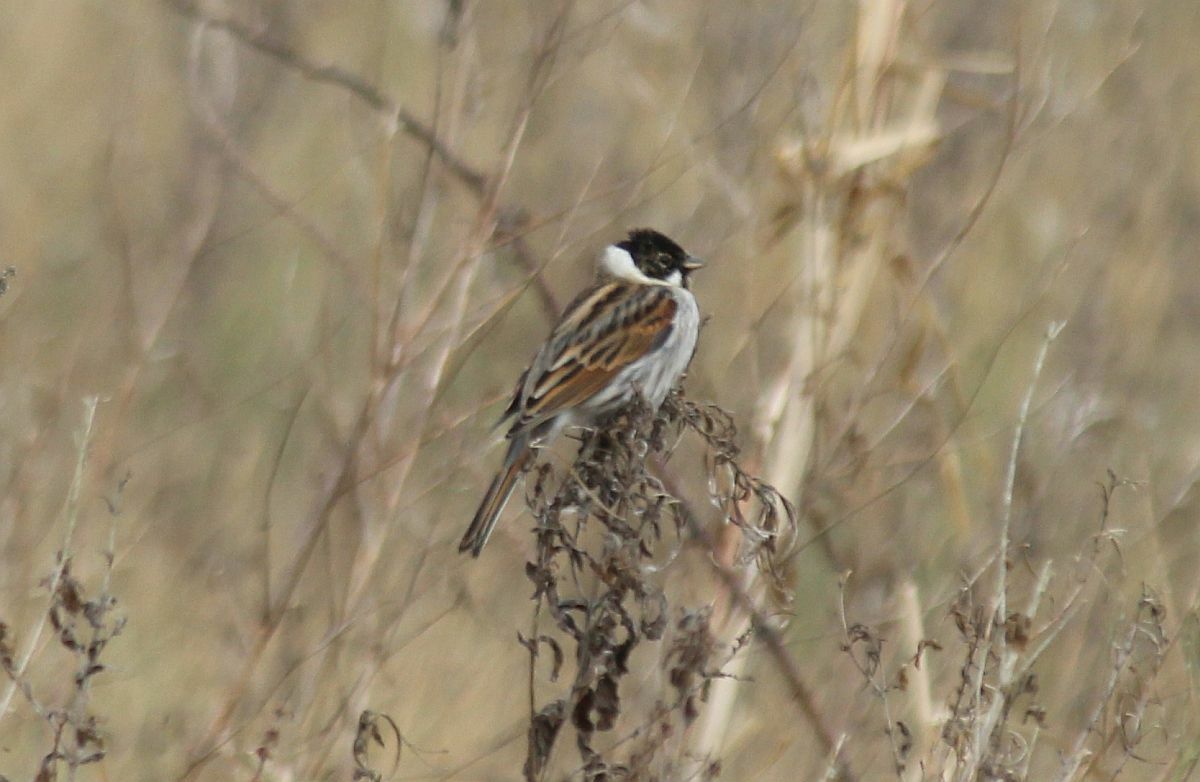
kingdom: Animalia
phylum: Chordata
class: Aves
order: Passeriformes
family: Emberizidae
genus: Emberiza
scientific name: Emberiza schoeniclus
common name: Reed bunting
